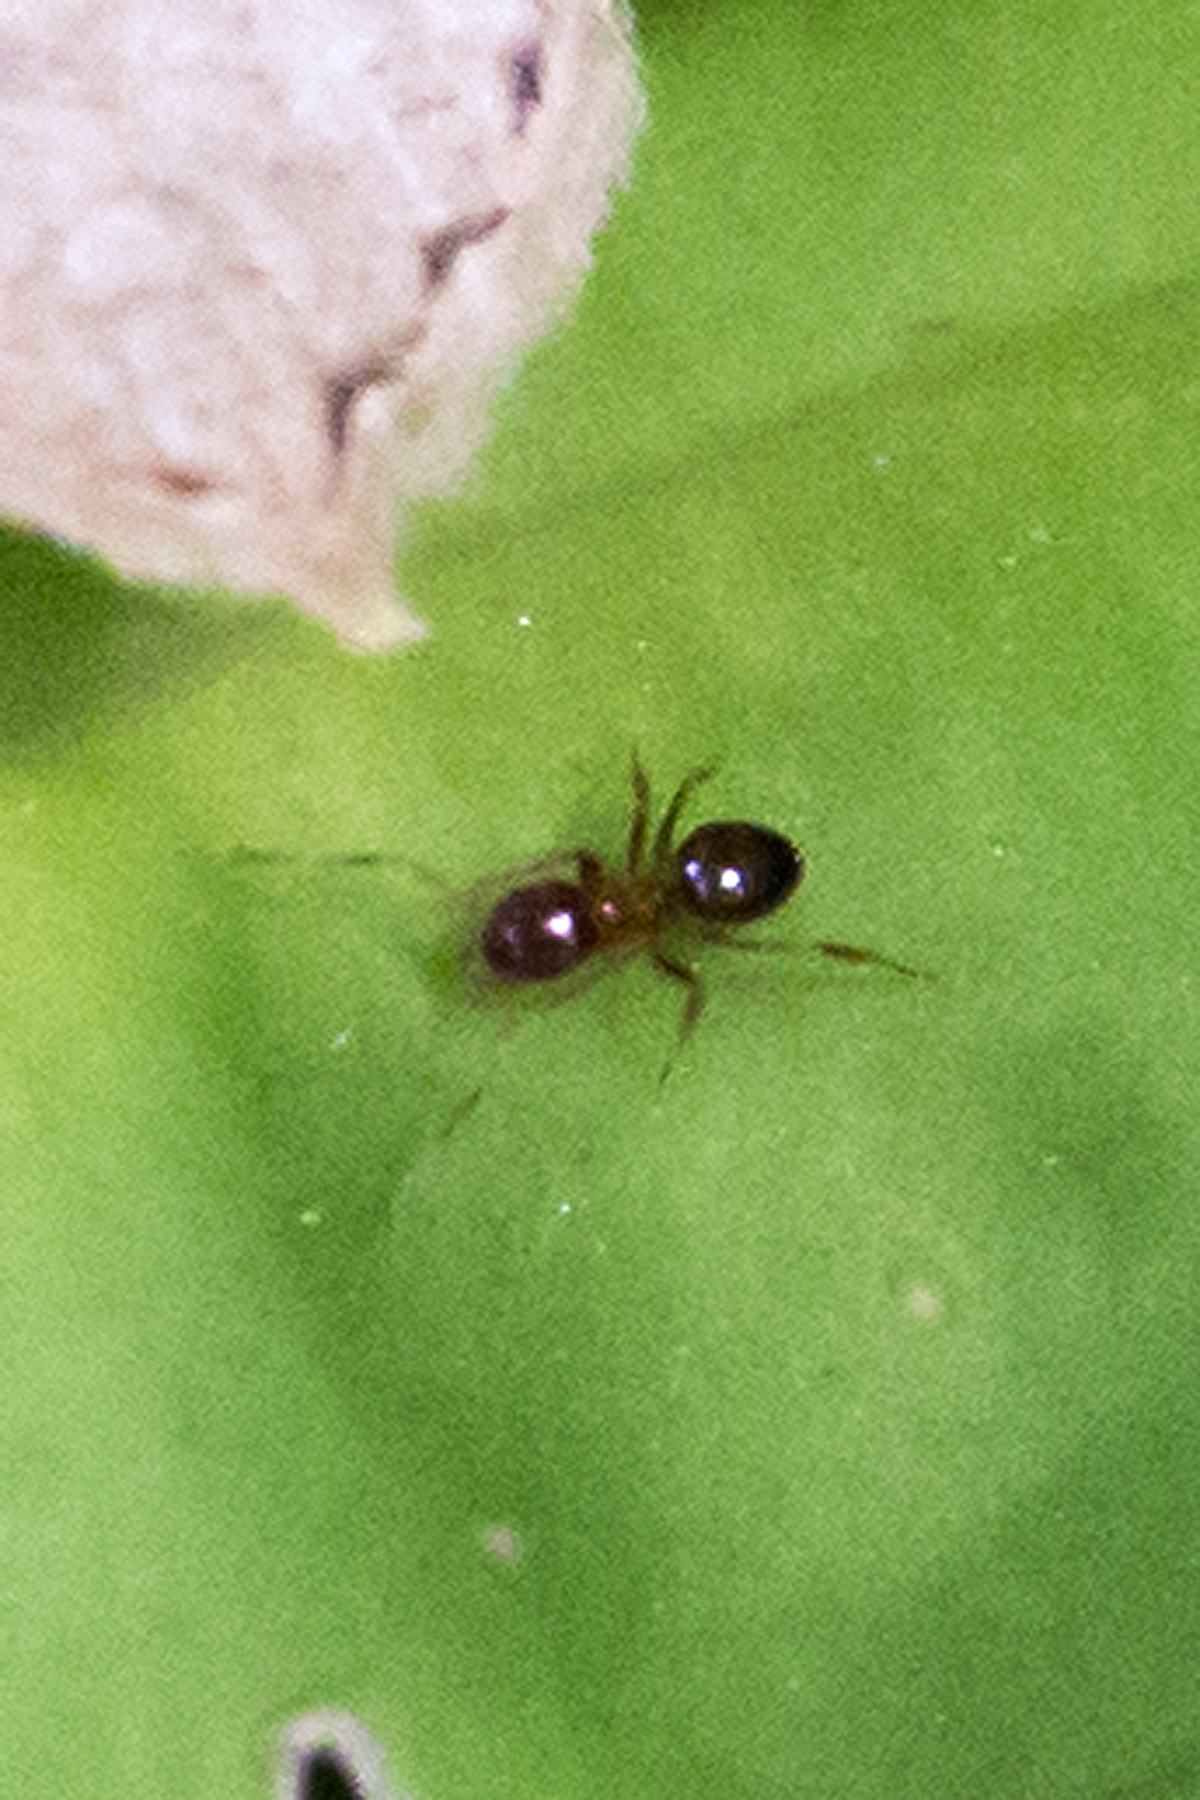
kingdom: Animalia
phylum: Arthropoda
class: Insecta
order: Hymenoptera
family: Formicidae
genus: Paratrechina
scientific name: Paratrechina flavipes
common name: Eastern asian formicine ant
